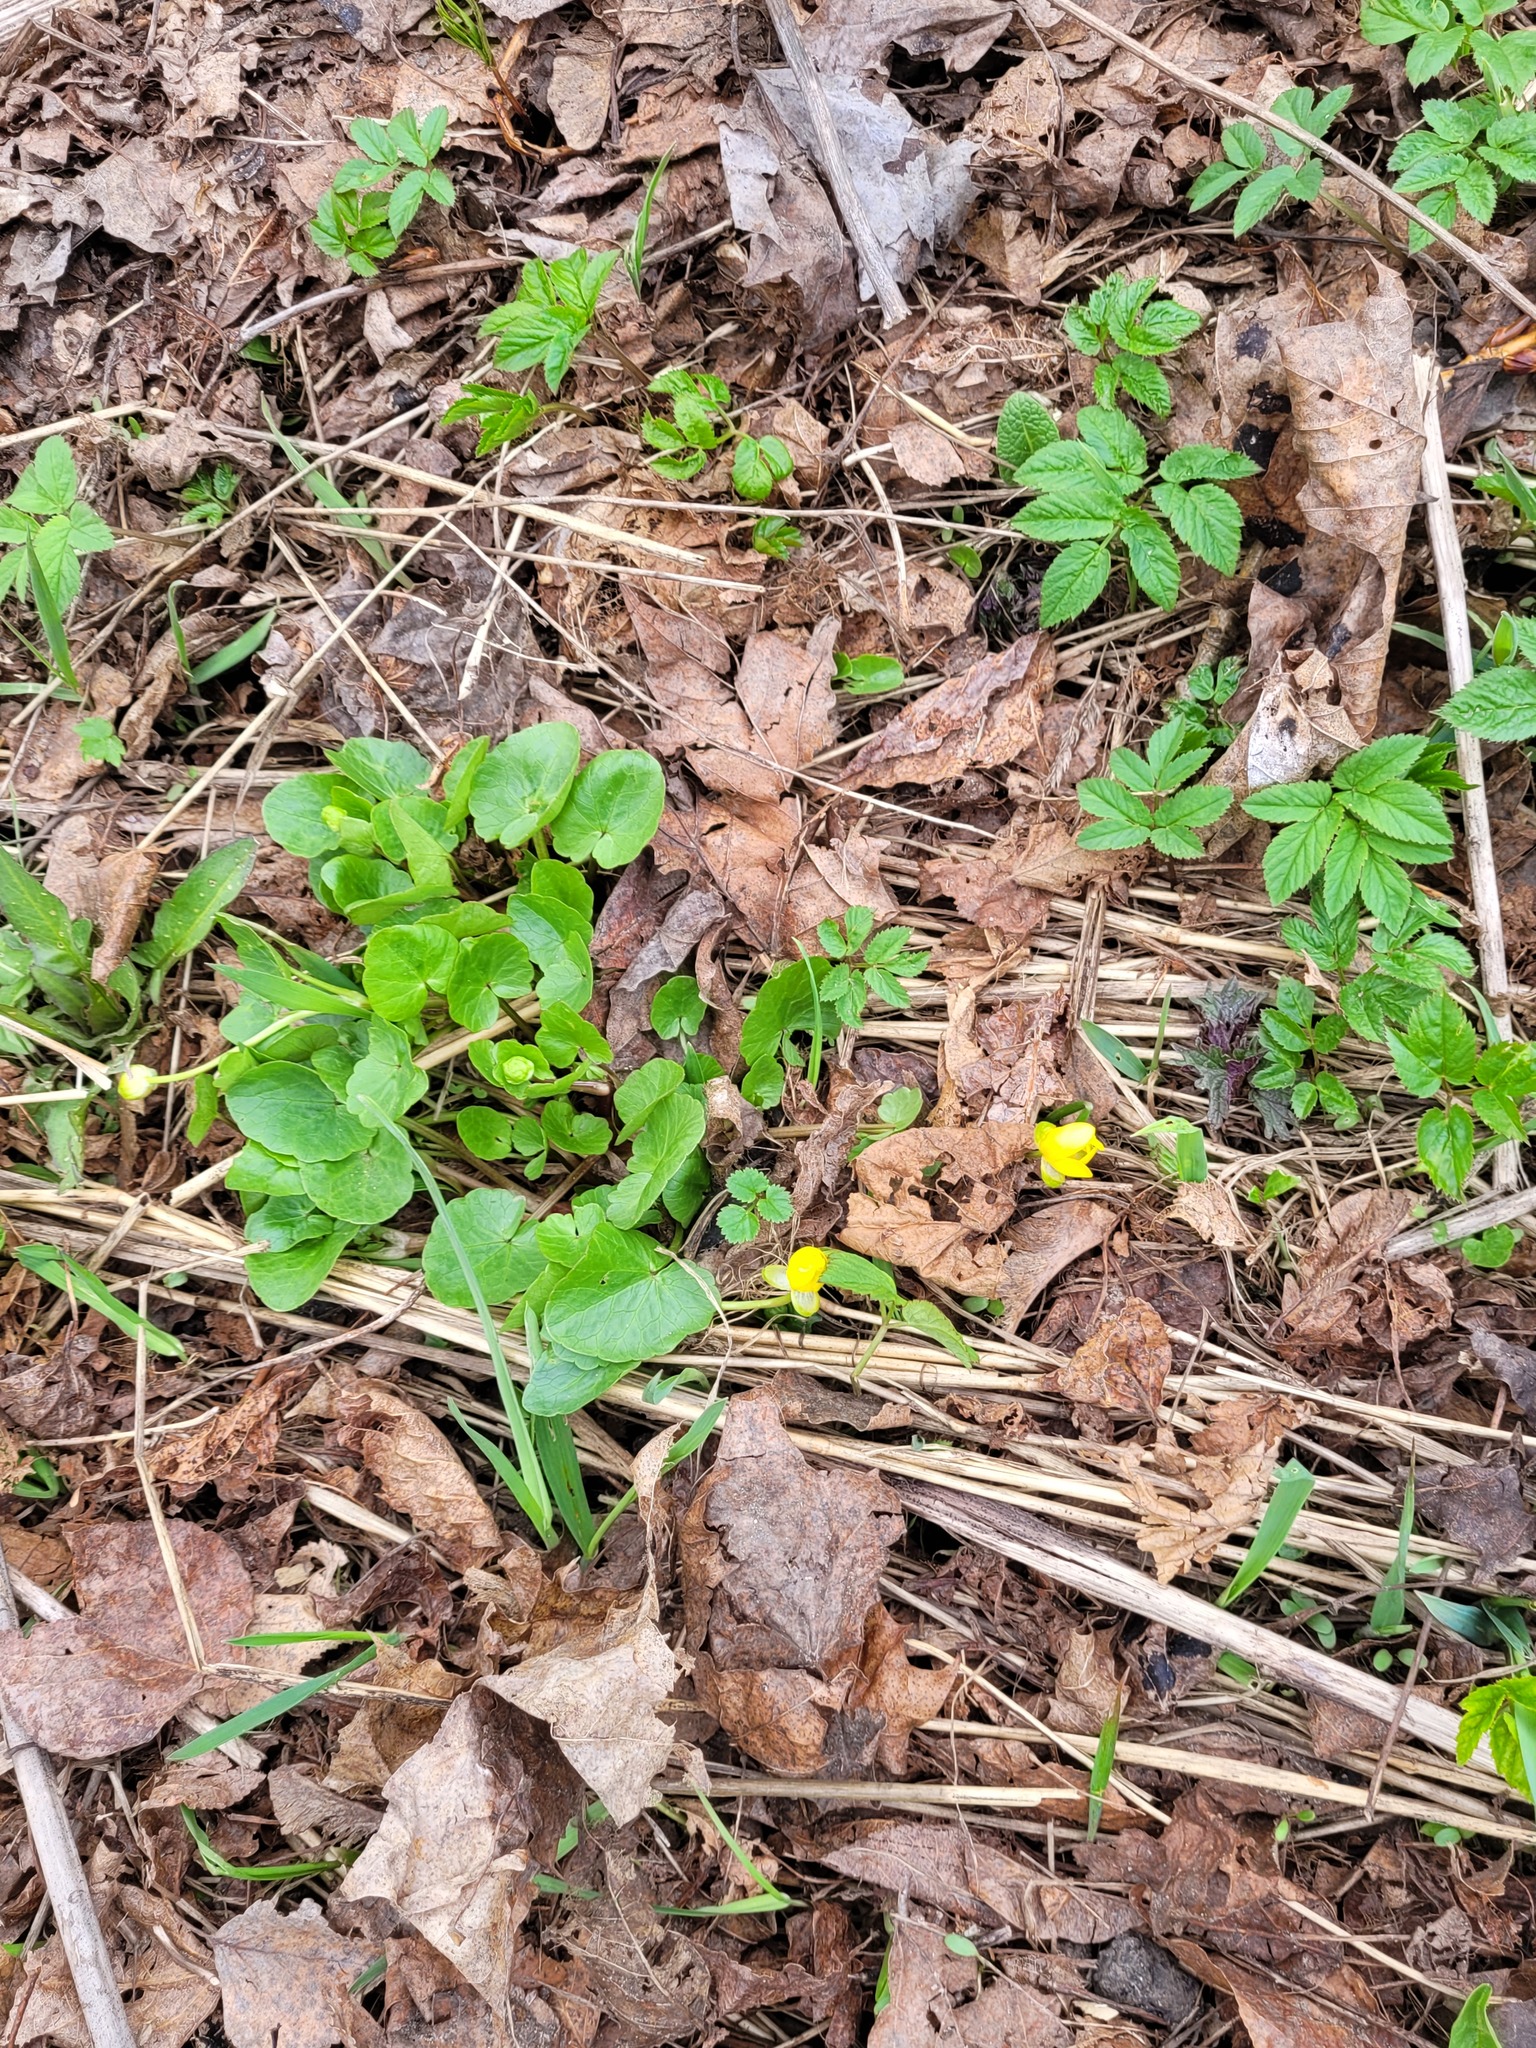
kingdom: Plantae
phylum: Tracheophyta
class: Magnoliopsida
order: Ranunculales
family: Ranunculaceae
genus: Ficaria
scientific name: Ficaria verna
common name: Lesser celandine
